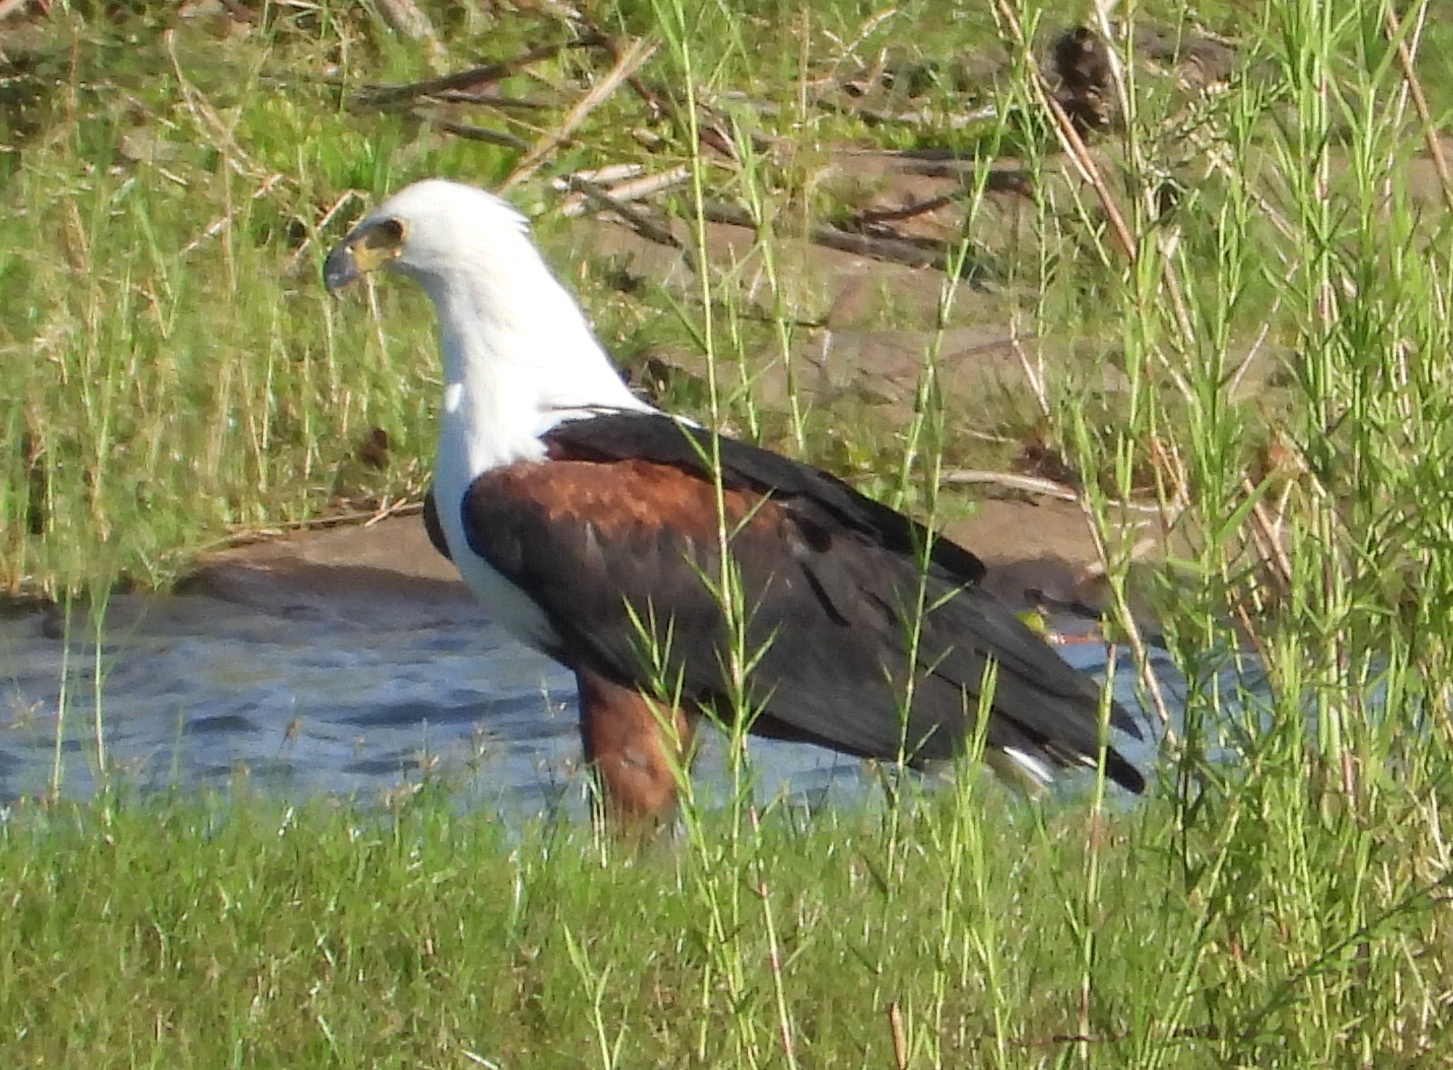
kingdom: Animalia
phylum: Chordata
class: Aves
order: Accipitriformes
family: Accipitridae
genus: Haliaeetus
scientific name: Haliaeetus vocifer
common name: African fish eagle
